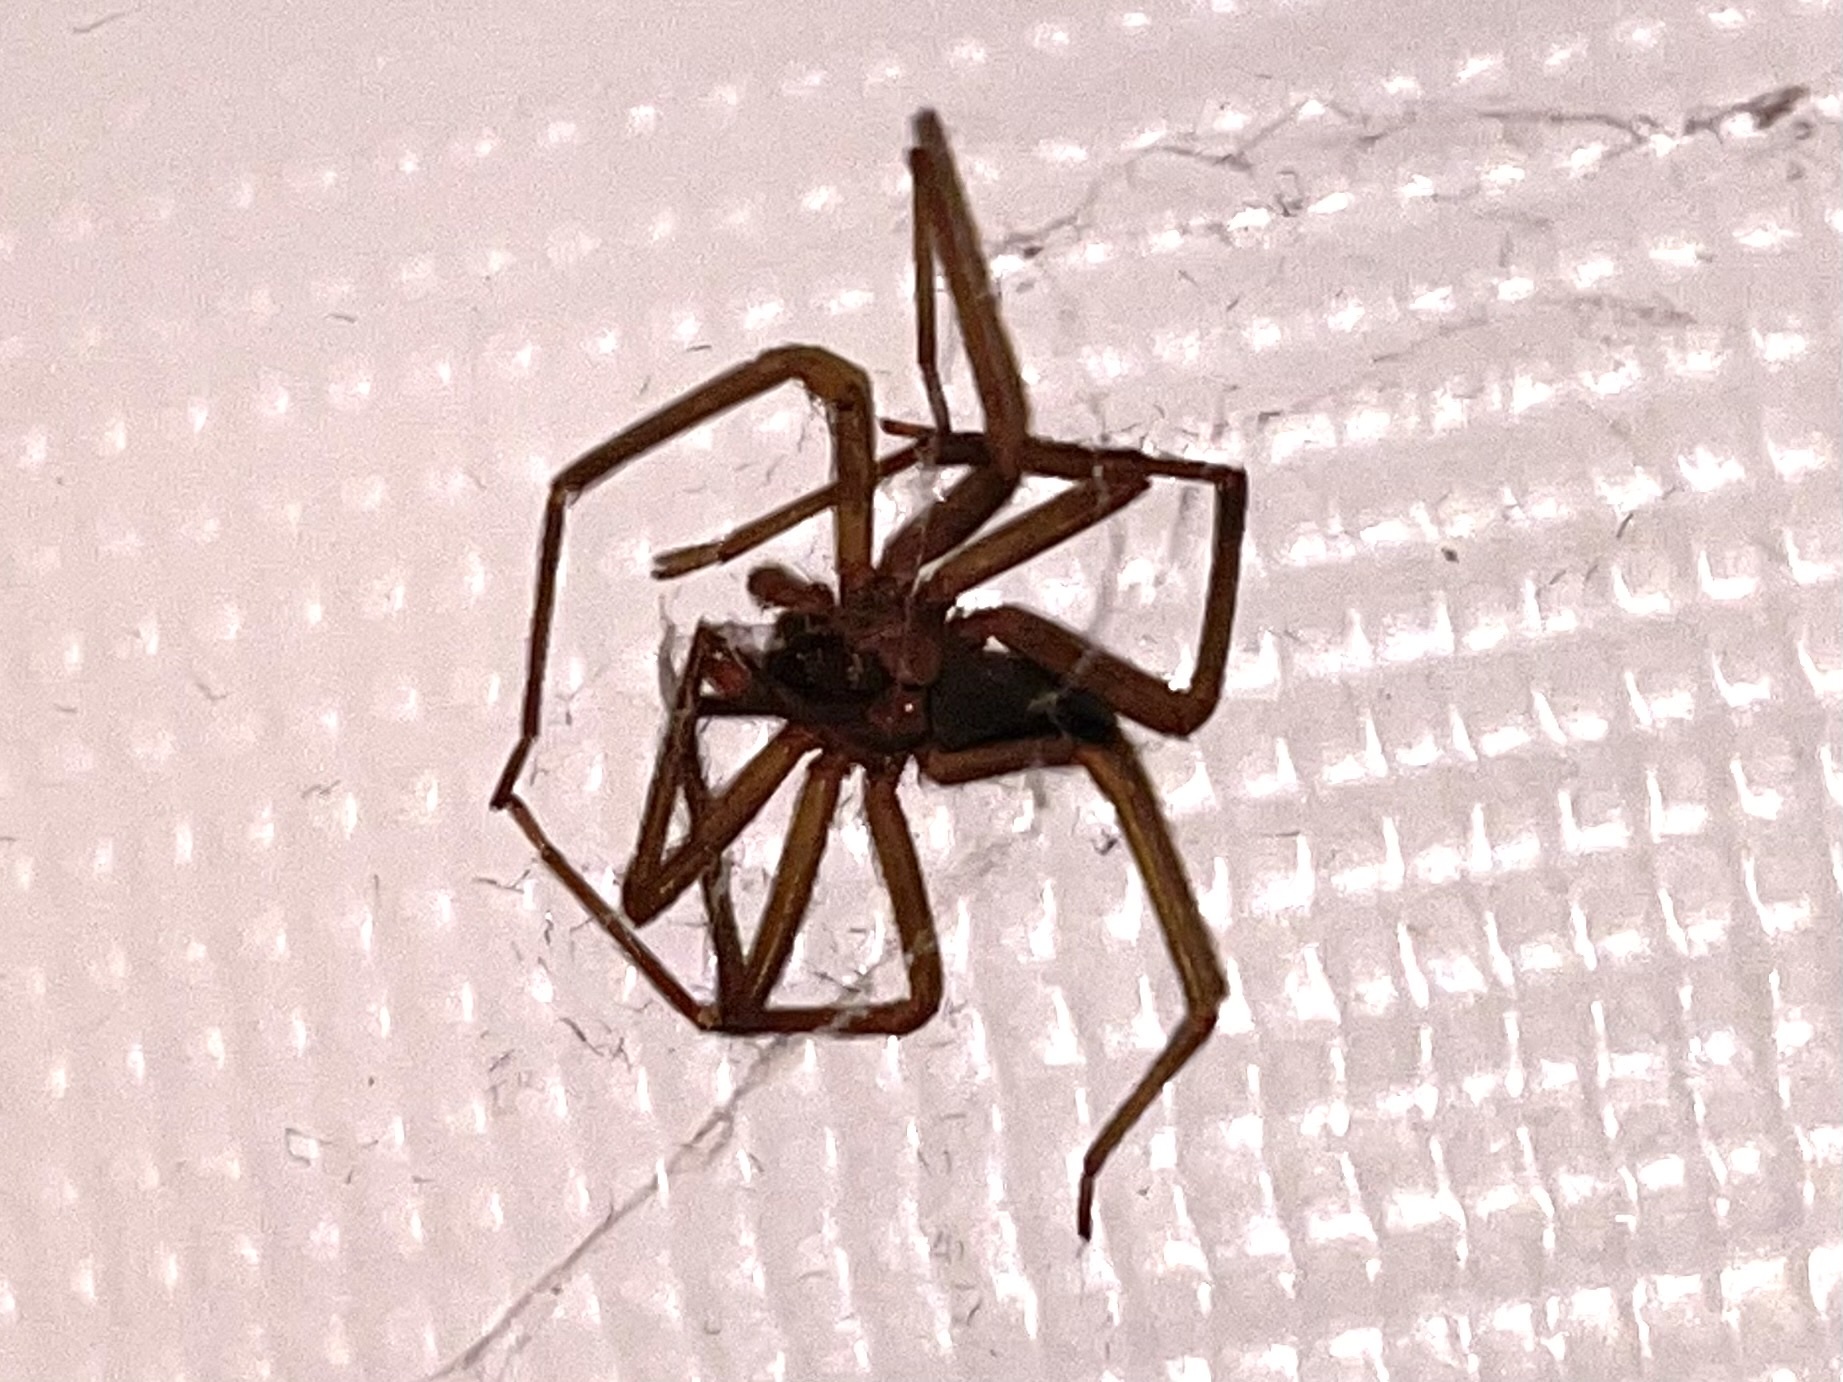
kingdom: Animalia
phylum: Arthropoda
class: Arachnida
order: Araneae
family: Sicariidae
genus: Loxosceles
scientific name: Loxosceles reclusa
